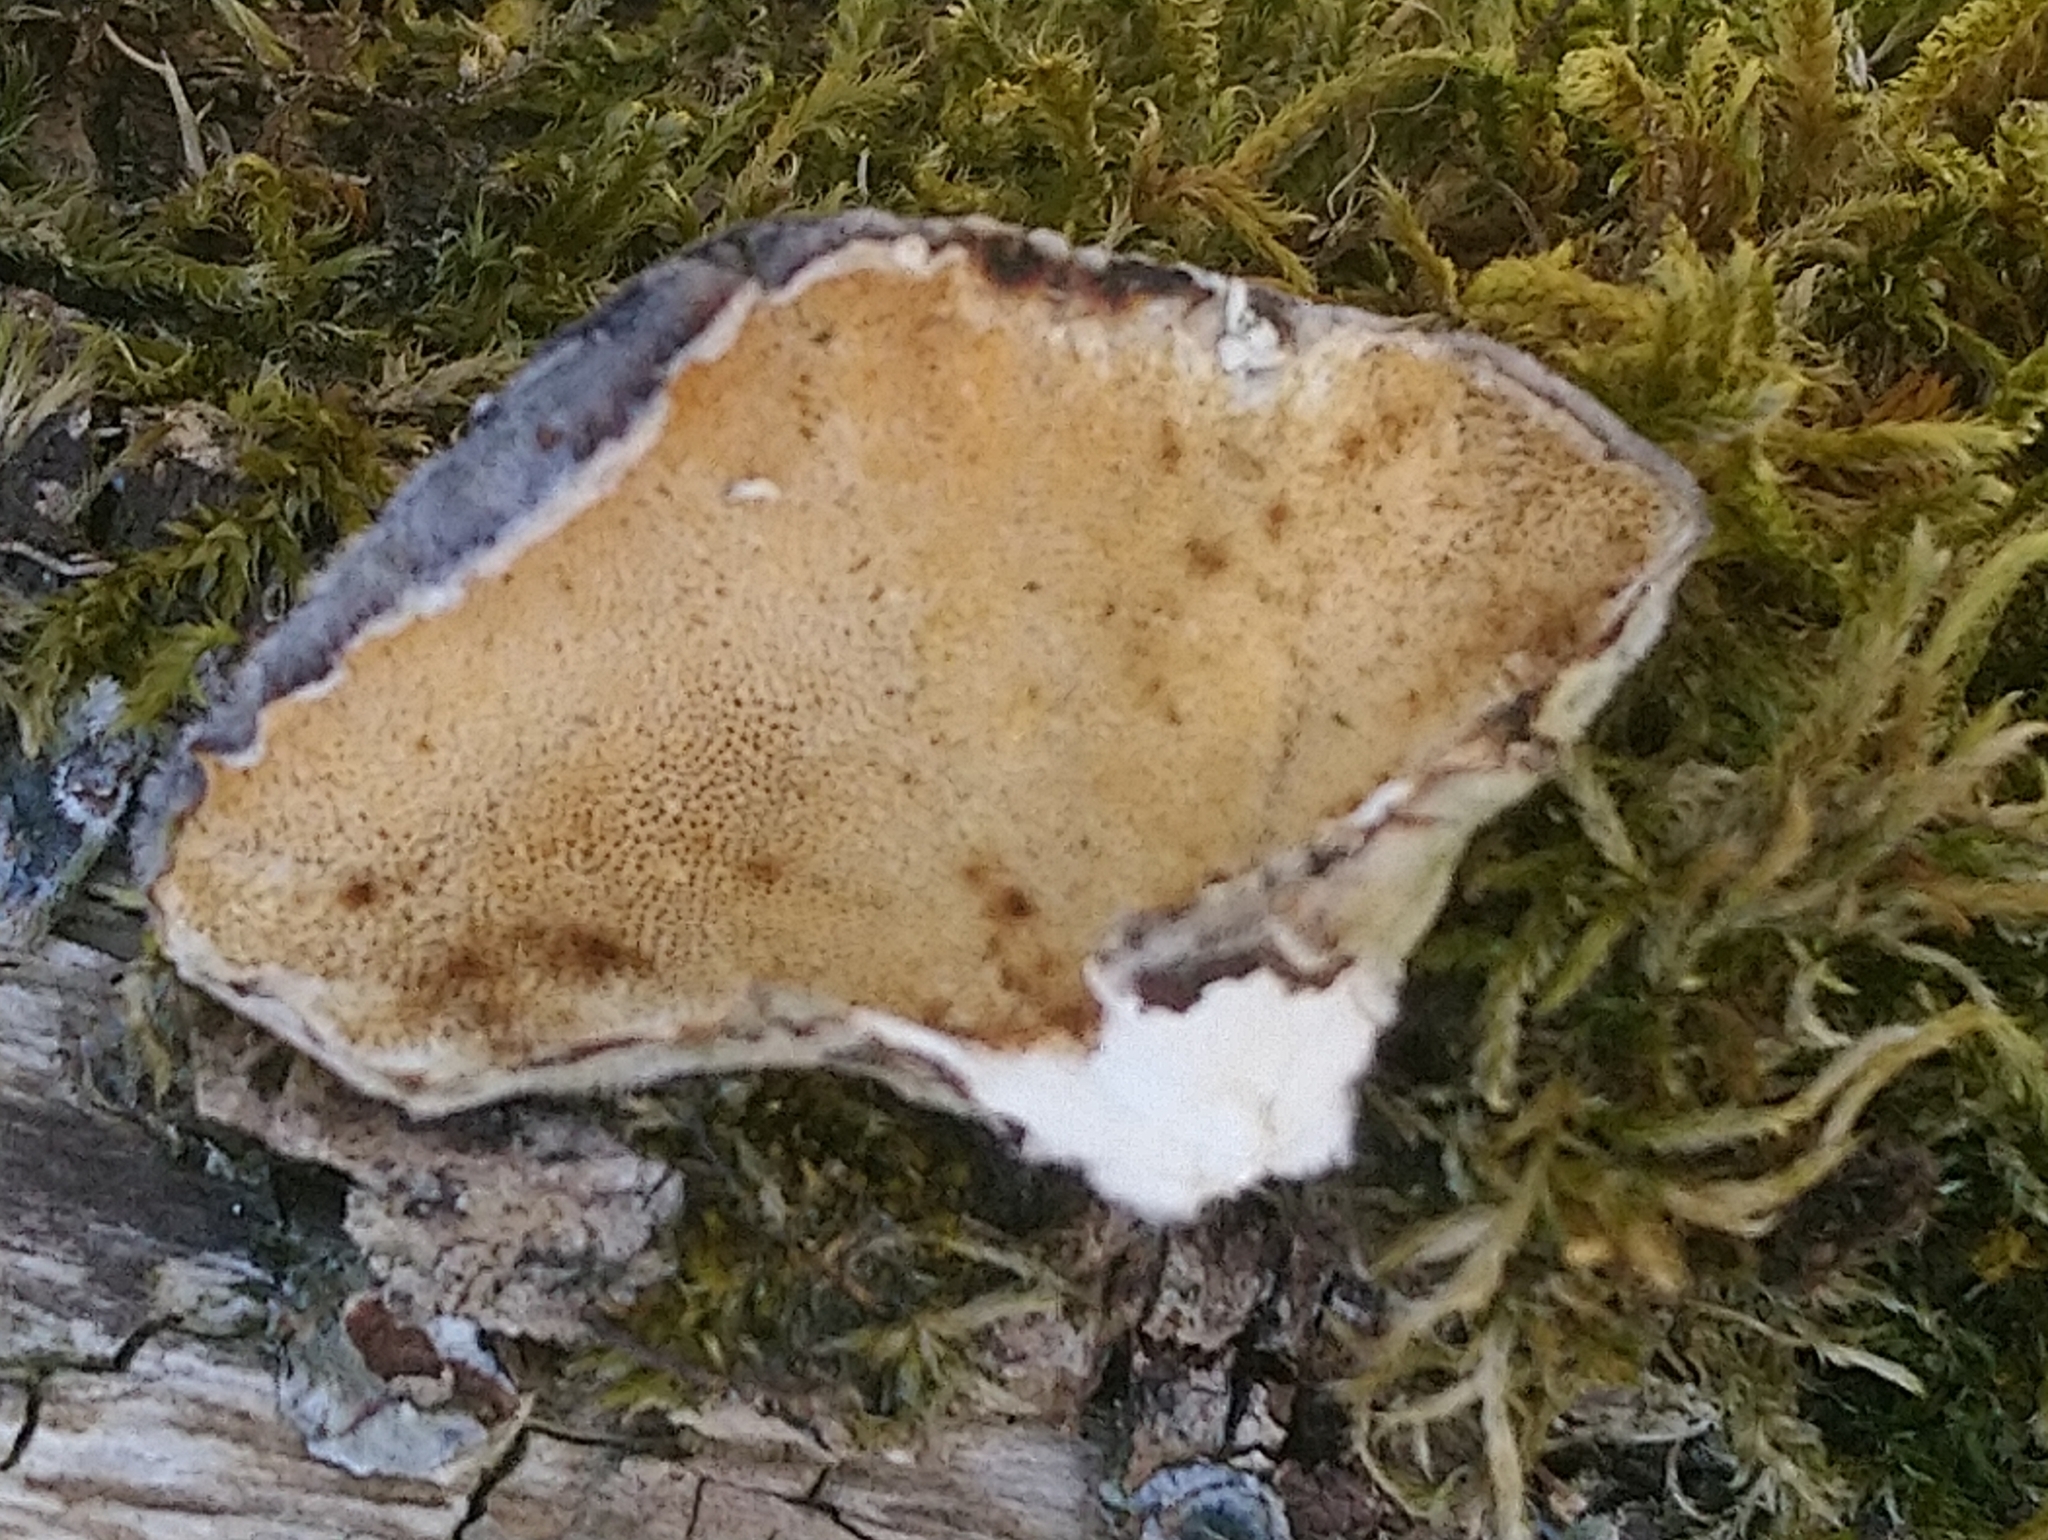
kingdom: Fungi
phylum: Basidiomycota
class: Agaricomycetes
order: Polyporales
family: Polyporaceae
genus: Trametes
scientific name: Trametes versicolor
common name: Turkeytail
